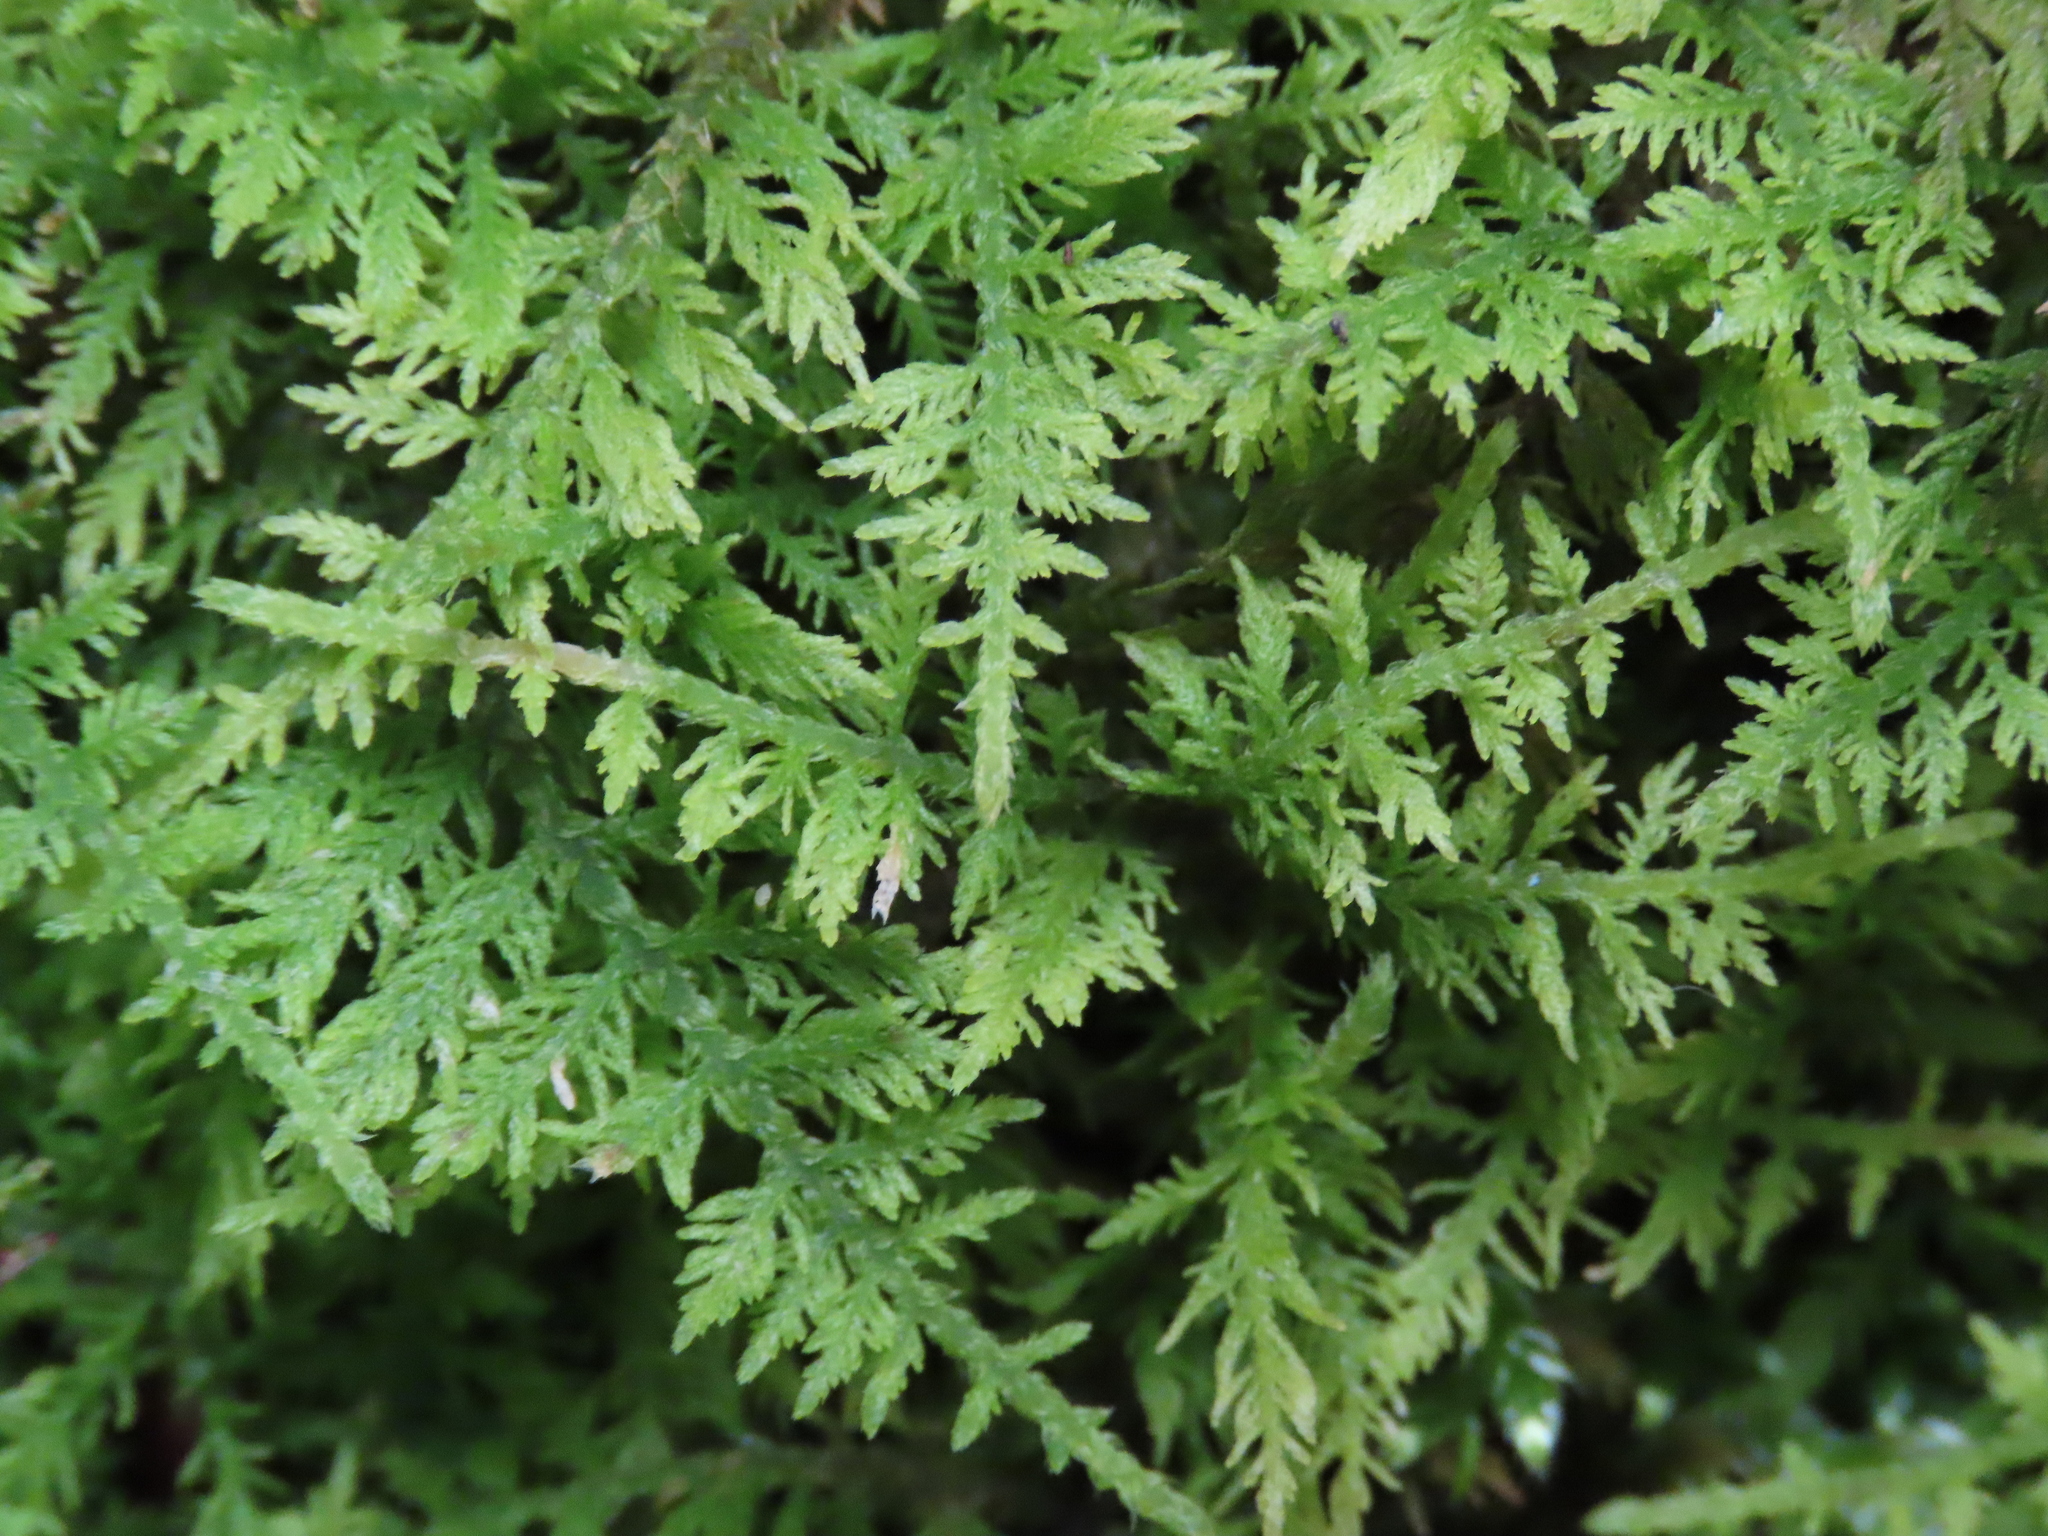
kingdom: Plantae
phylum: Bryophyta
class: Bryopsida
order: Hypnales
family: Thuidiaceae
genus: Thuidium
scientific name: Thuidium delicatulum
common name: Delicate fern moss
